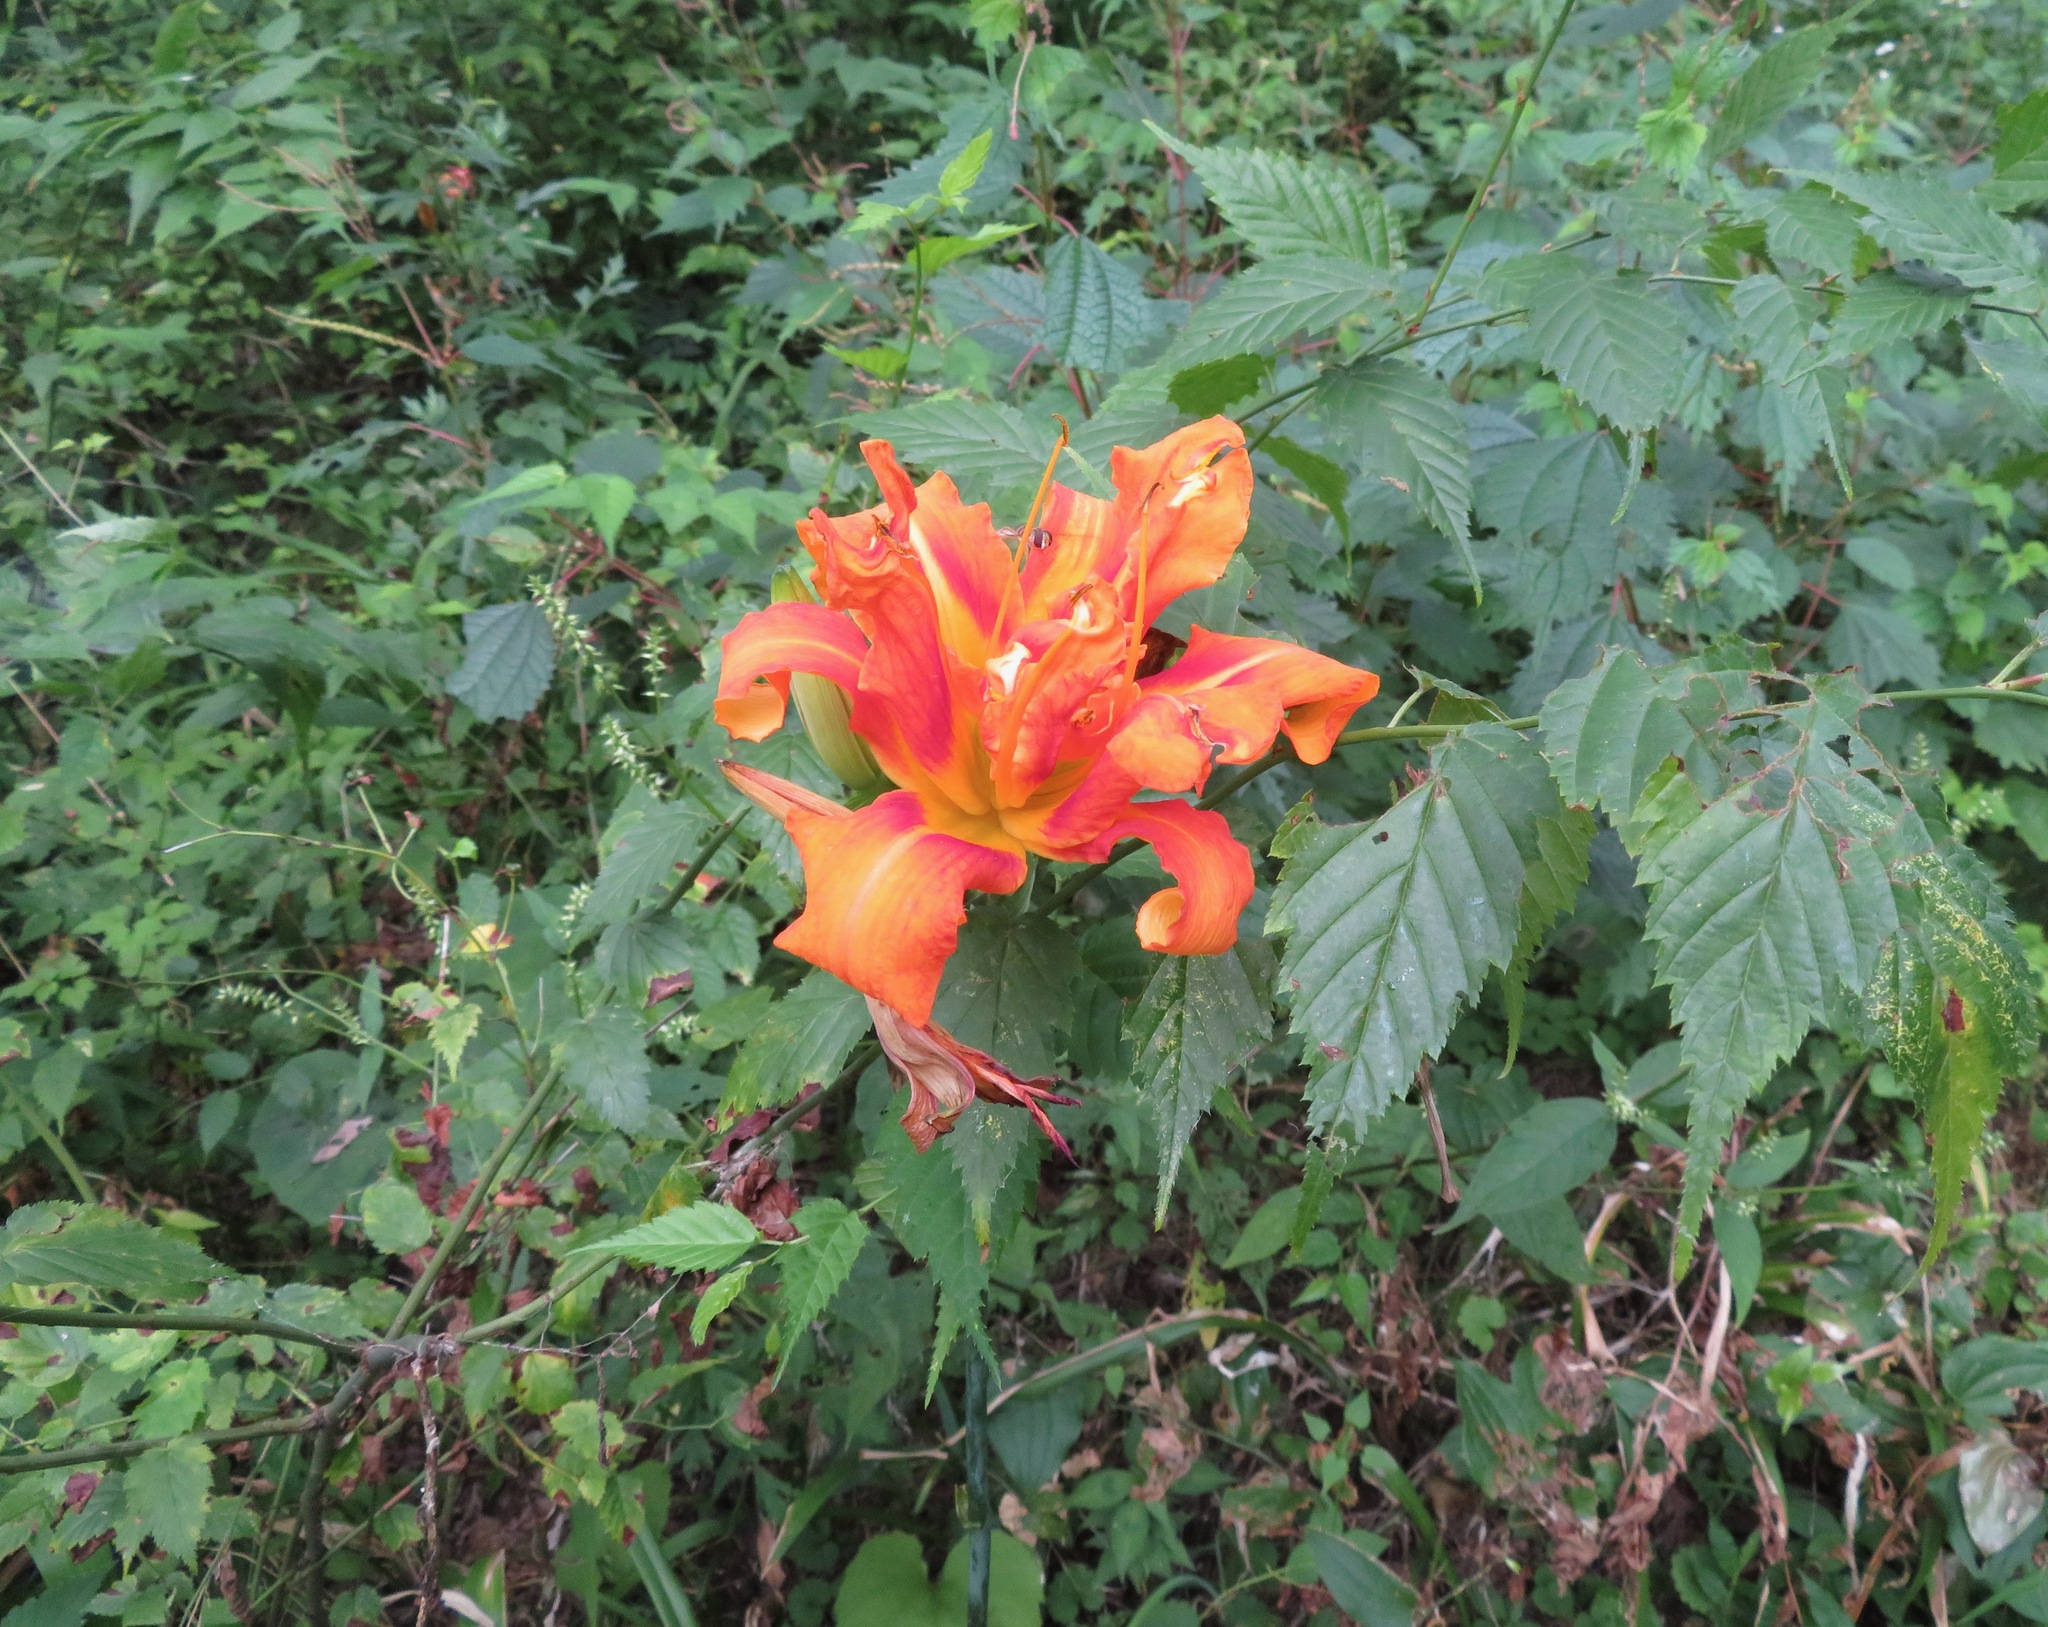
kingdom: Plantae
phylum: Tracheophyta
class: Liliopsida
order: Asparagales
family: Asphodelaceae
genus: Hemerocallis
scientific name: Hemerocallis fulva
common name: Orange day-lily
